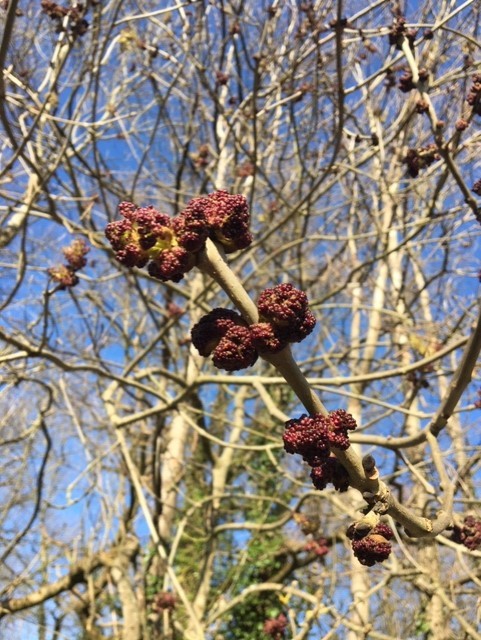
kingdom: Plantae
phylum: Tracheophyta
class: Magnoliopsida
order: Lamiales
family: Oleaceae
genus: Fraxinus
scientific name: Fraxinus excelsior
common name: European ash
